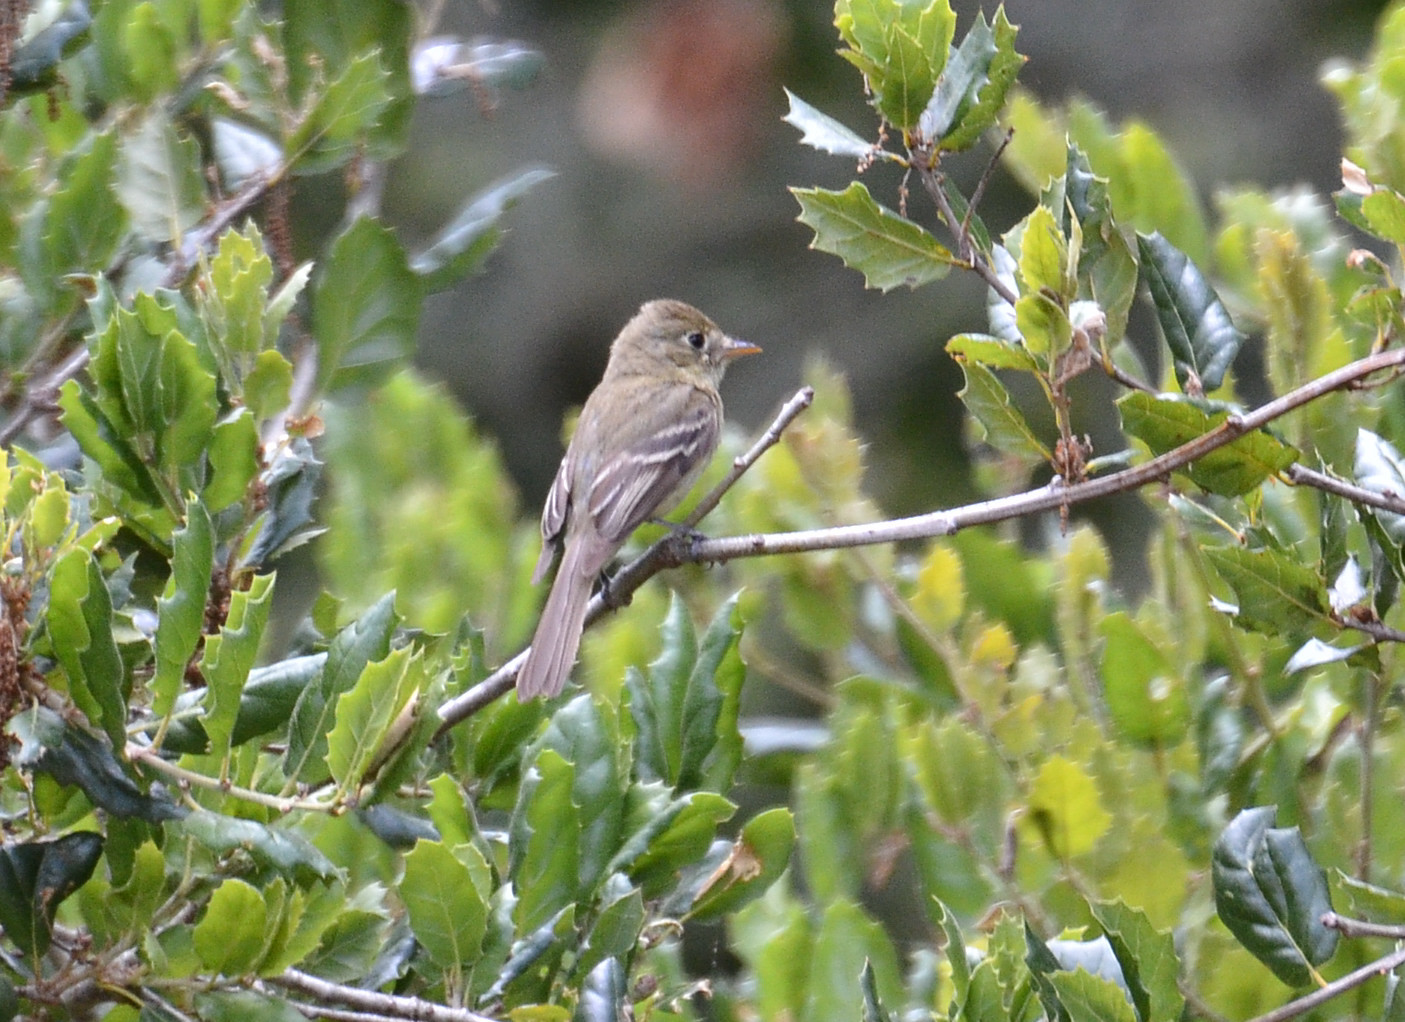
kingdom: Animalia
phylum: Chordata
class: Aves
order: Passeriformes
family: Tyrannidae
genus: Empidonax
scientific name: Empidonax difficilis
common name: Pacific-slope flycatcher
